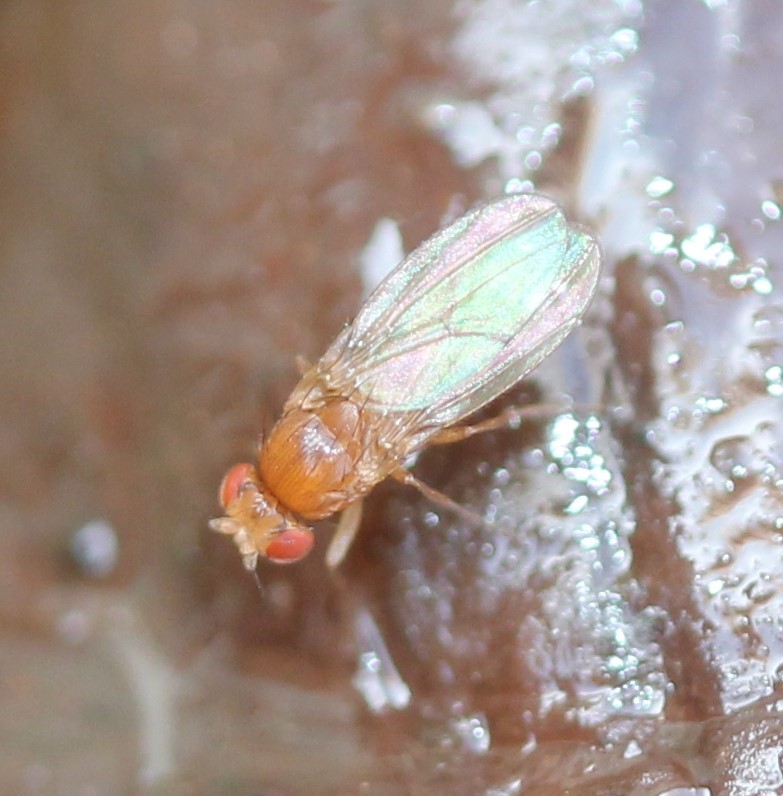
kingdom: Animalia
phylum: Arthropoda
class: Insecta
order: Diptera
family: Drosophilidae
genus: Drosophila
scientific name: Drosophila
